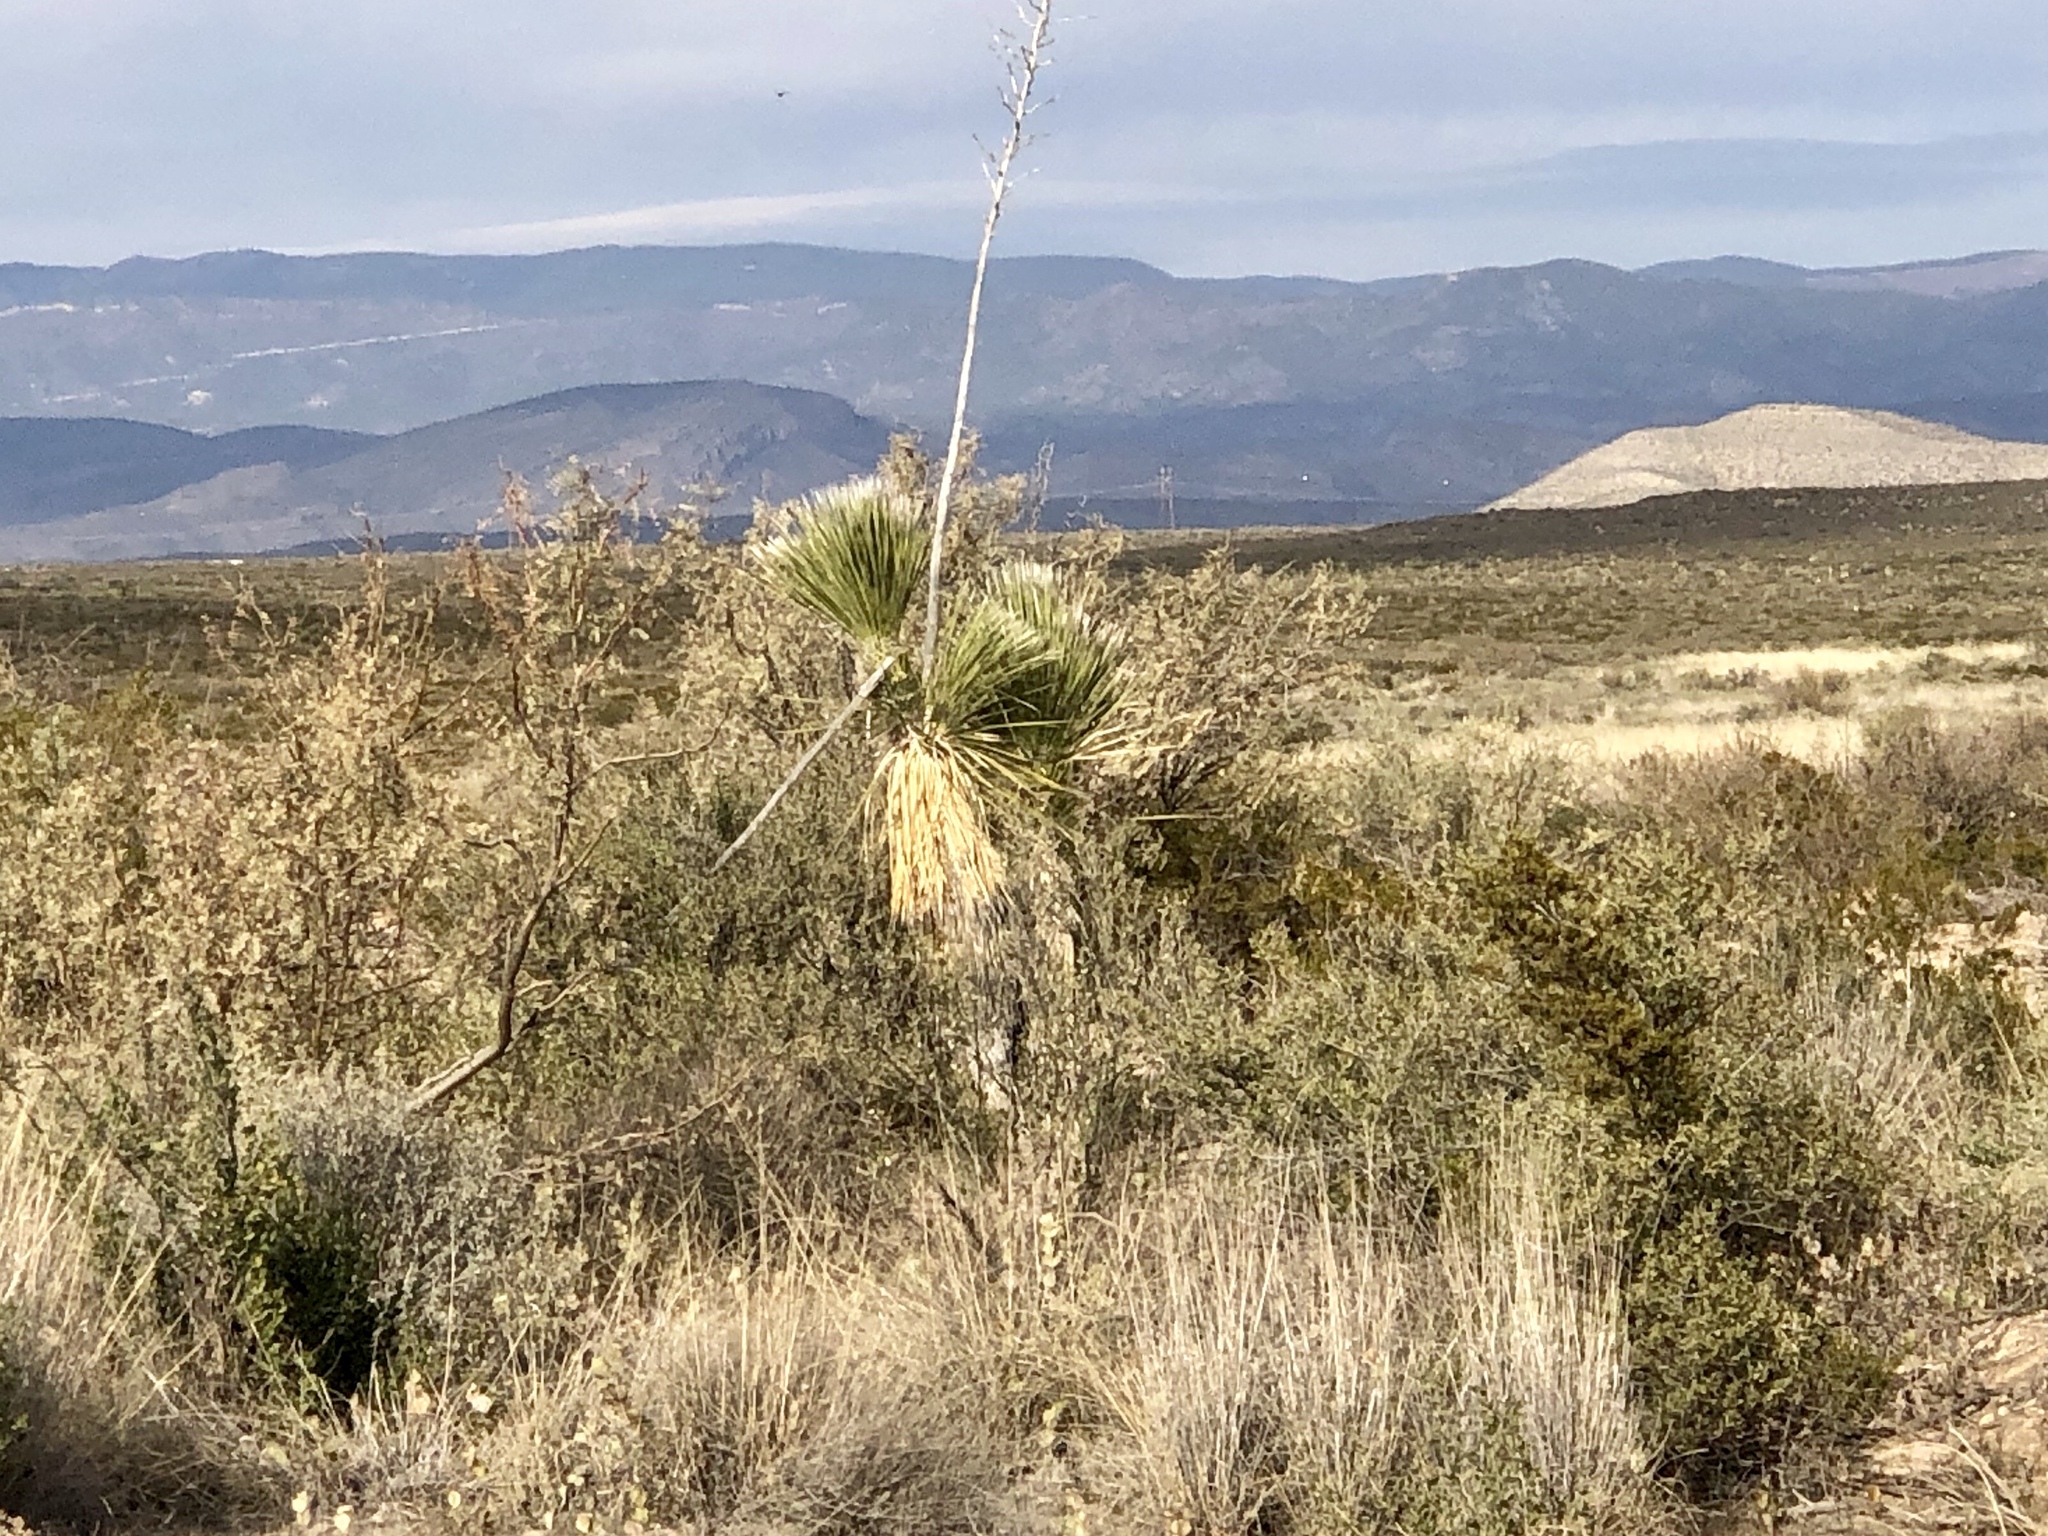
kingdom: Plantae
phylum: Tracheophyta
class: Liliopsida
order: Asparagales
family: Asparagaceae
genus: Yucca
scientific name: Yucca elata
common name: Palmella
